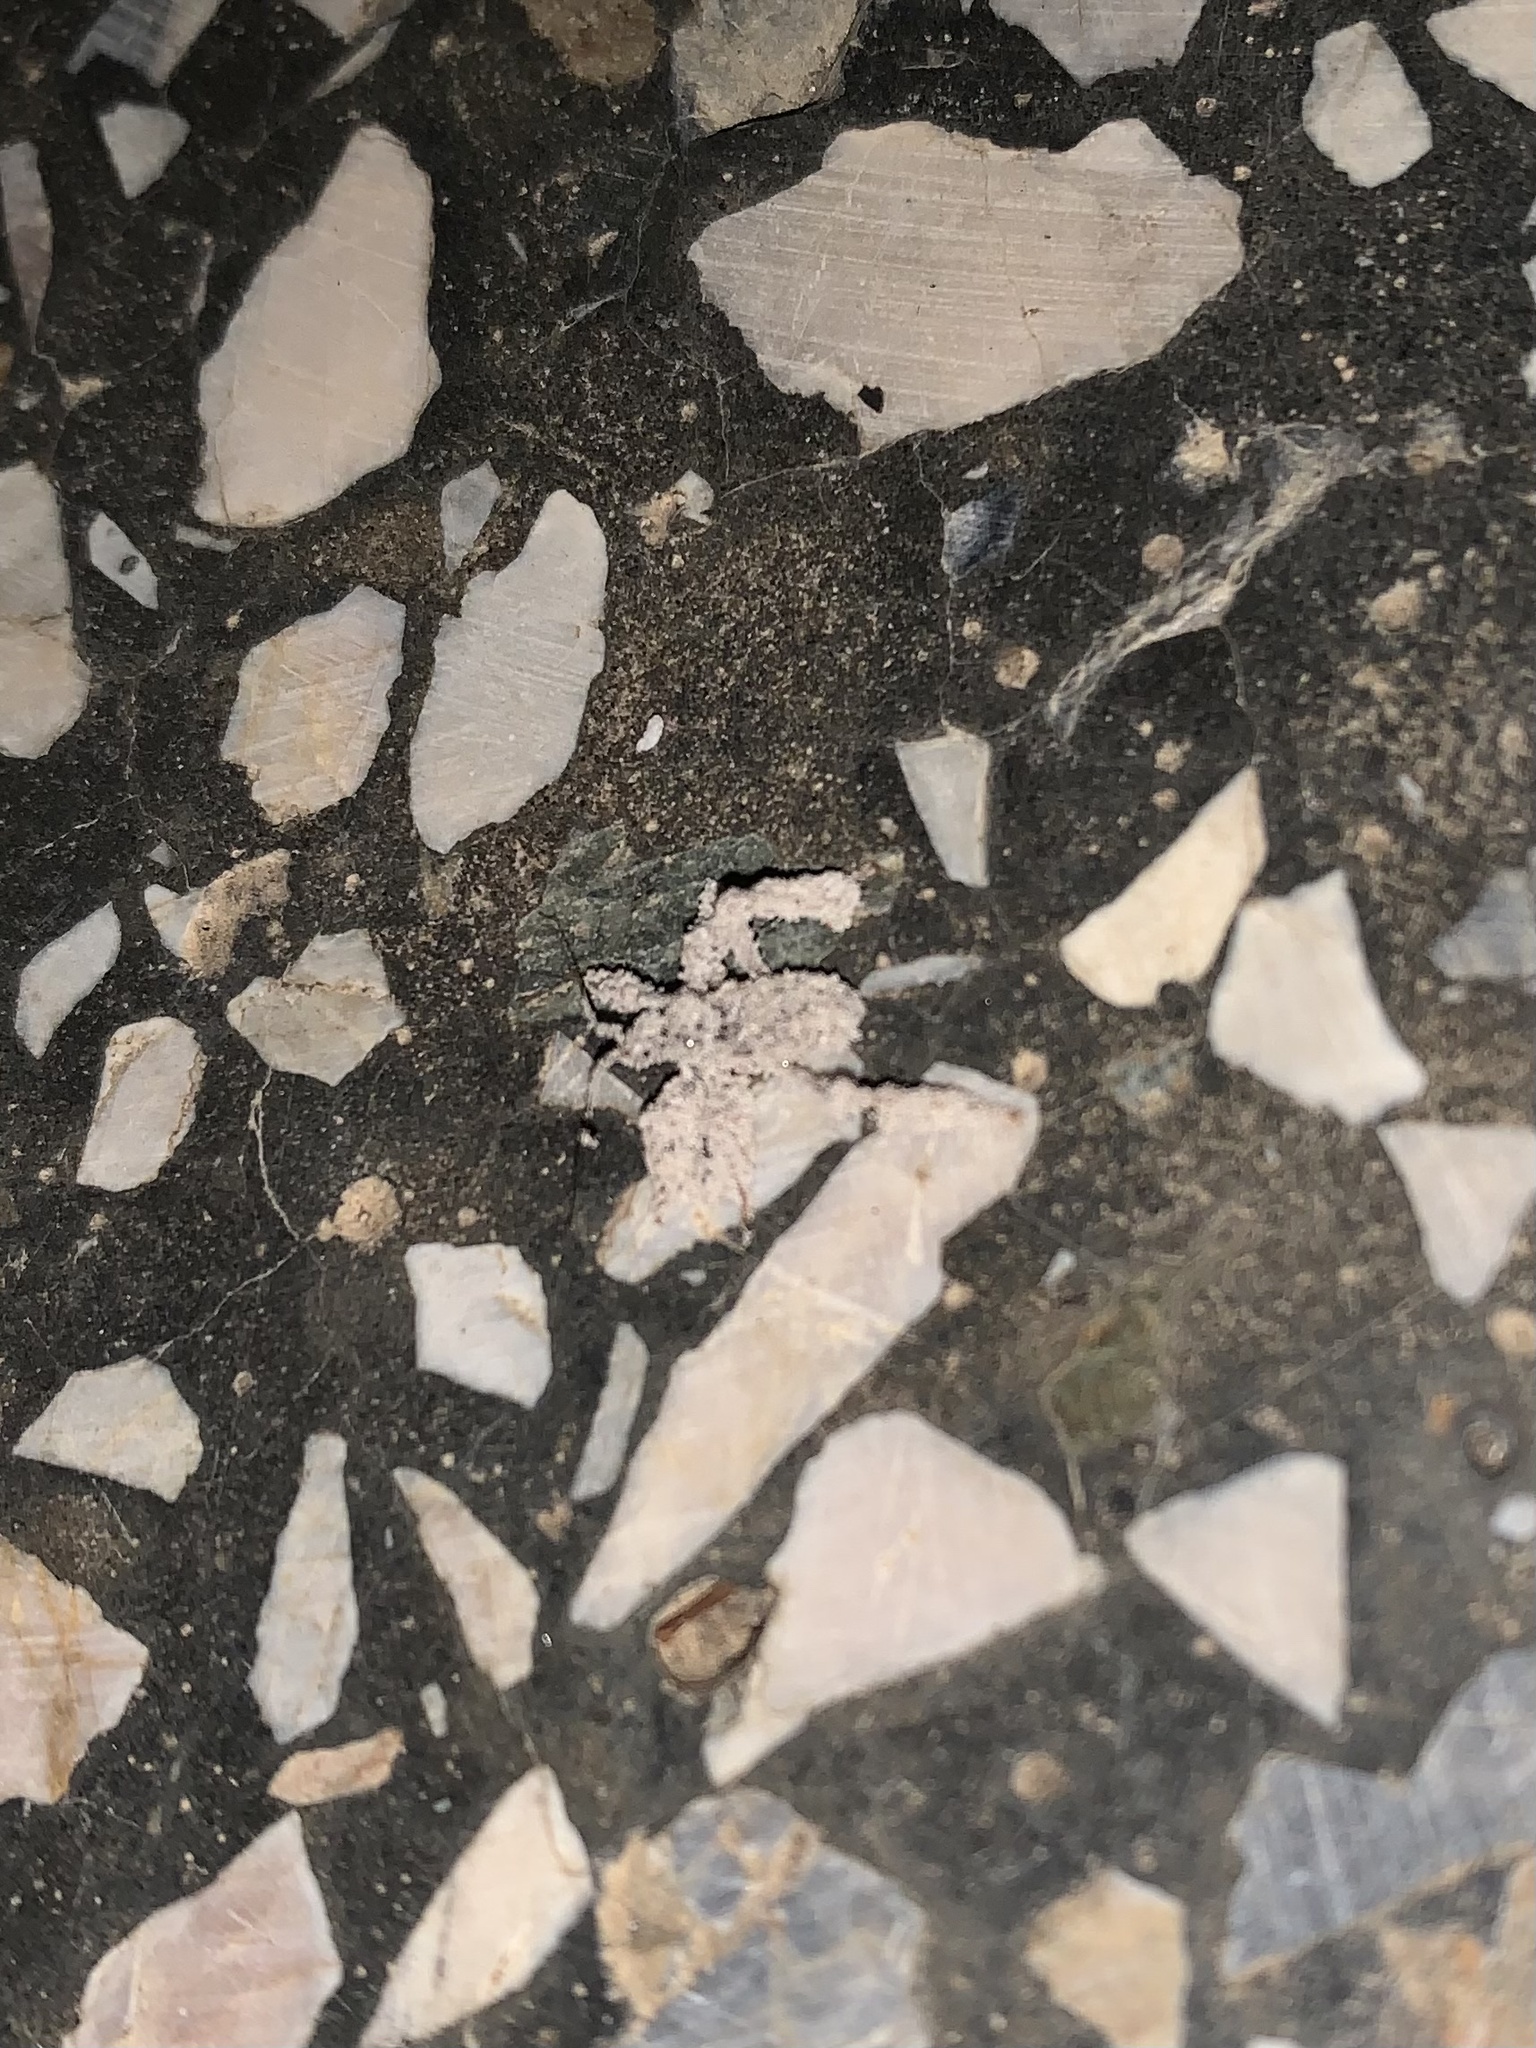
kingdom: Animalia
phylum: Arthropoda
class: Insecta
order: Hemiptera
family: Reduviidae
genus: Reduvius
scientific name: Reduvius personatus
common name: Masked hunter
